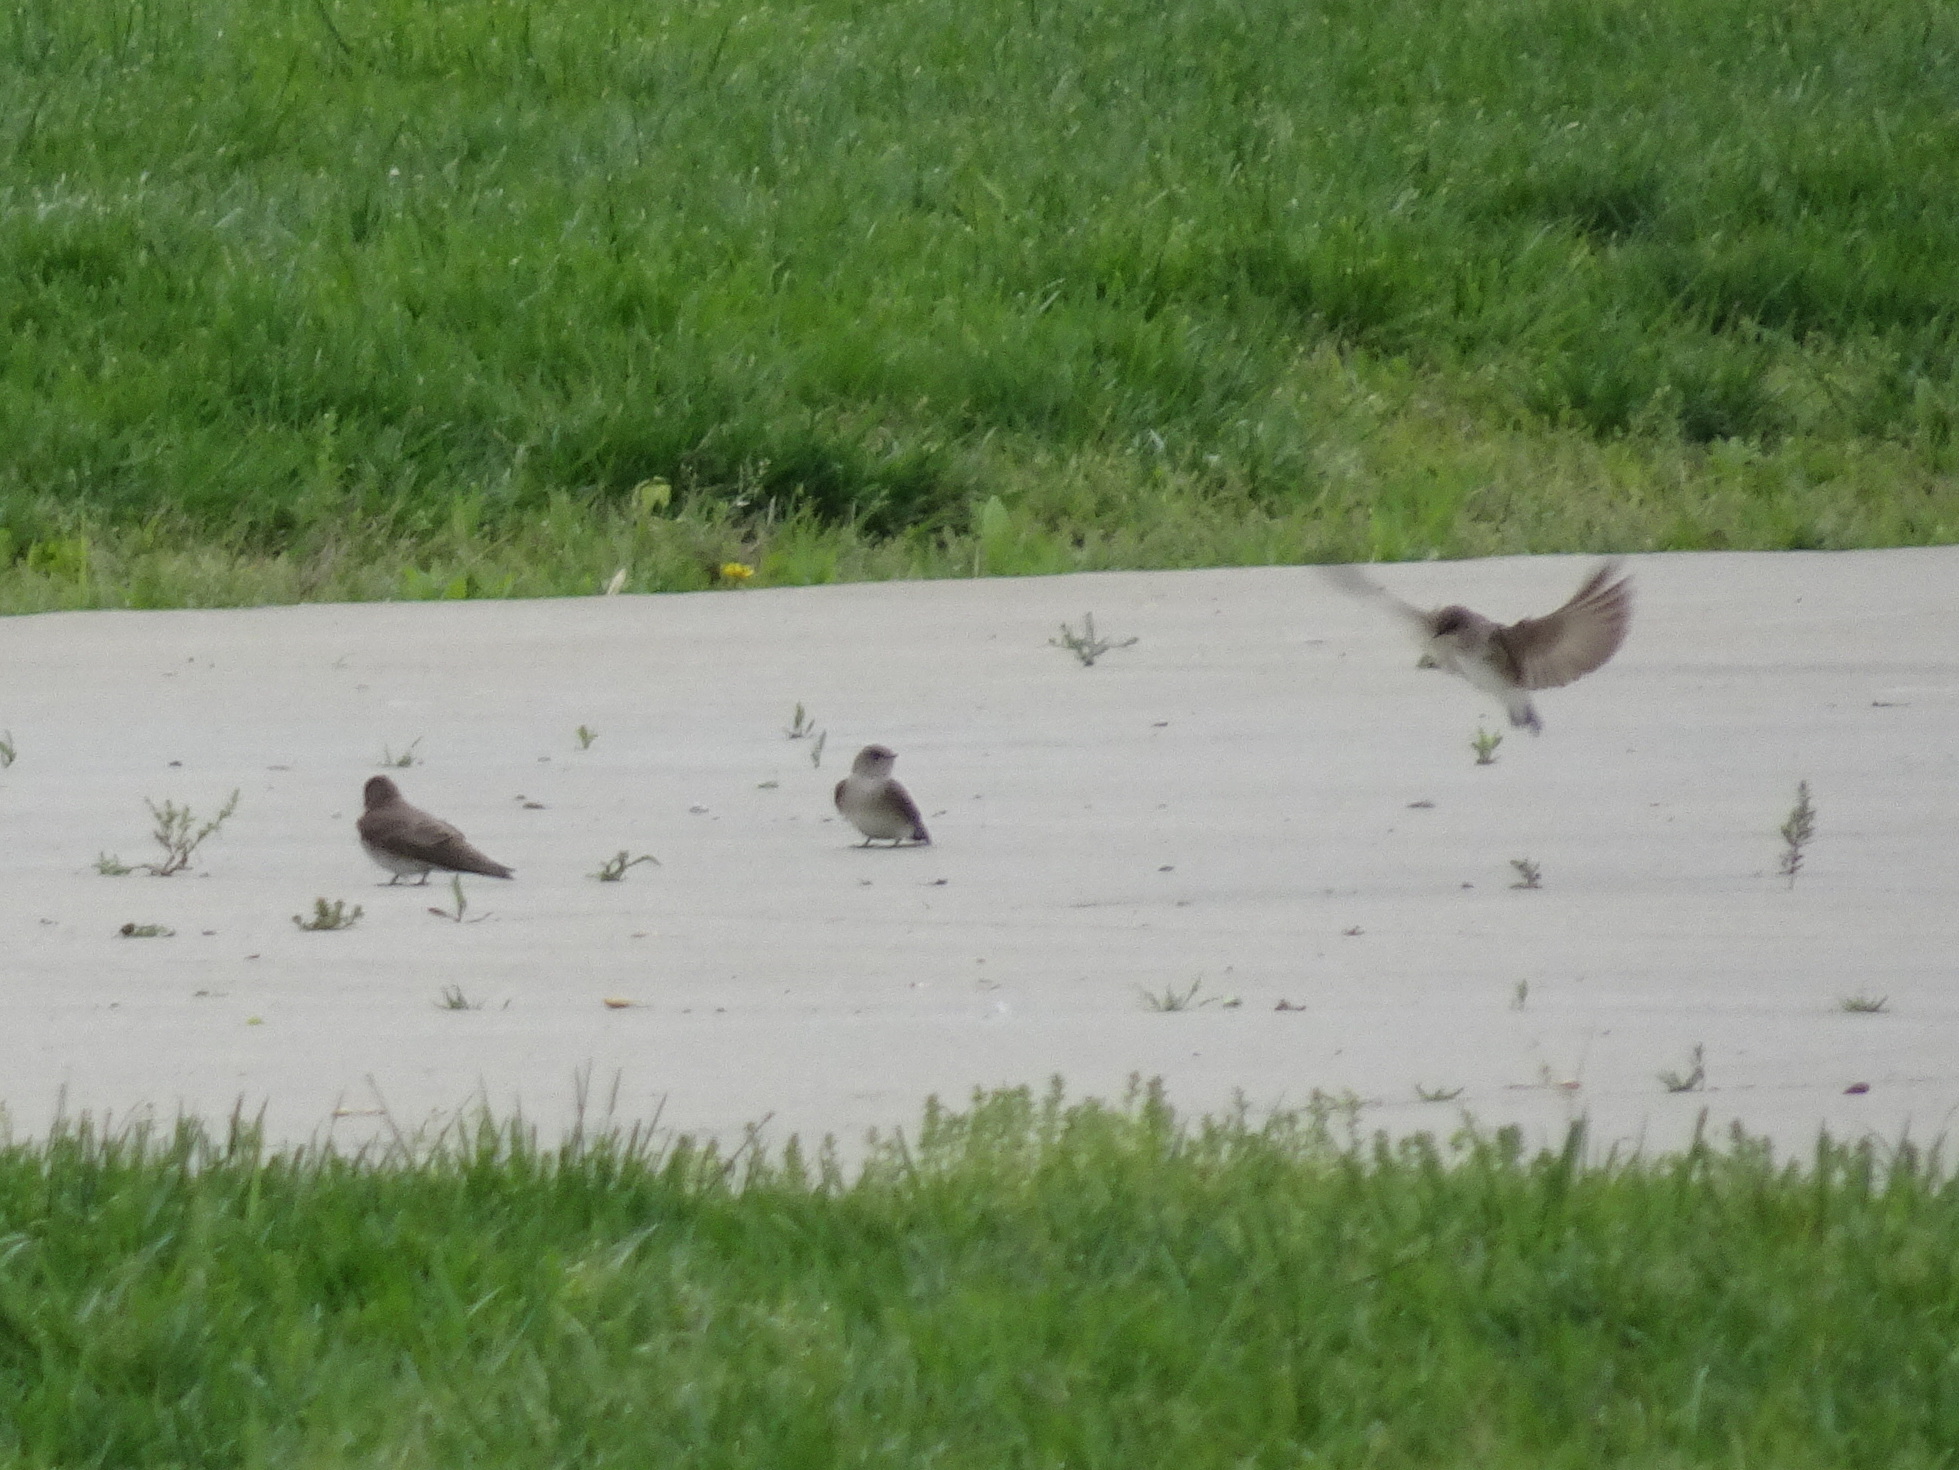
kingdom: Animalia
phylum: Chordata
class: Aves
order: Passeriformes
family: Hirundinidae
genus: Stelgidopteryx
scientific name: Stelgidopteryx serripennis
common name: Northern rough-winged swallow
